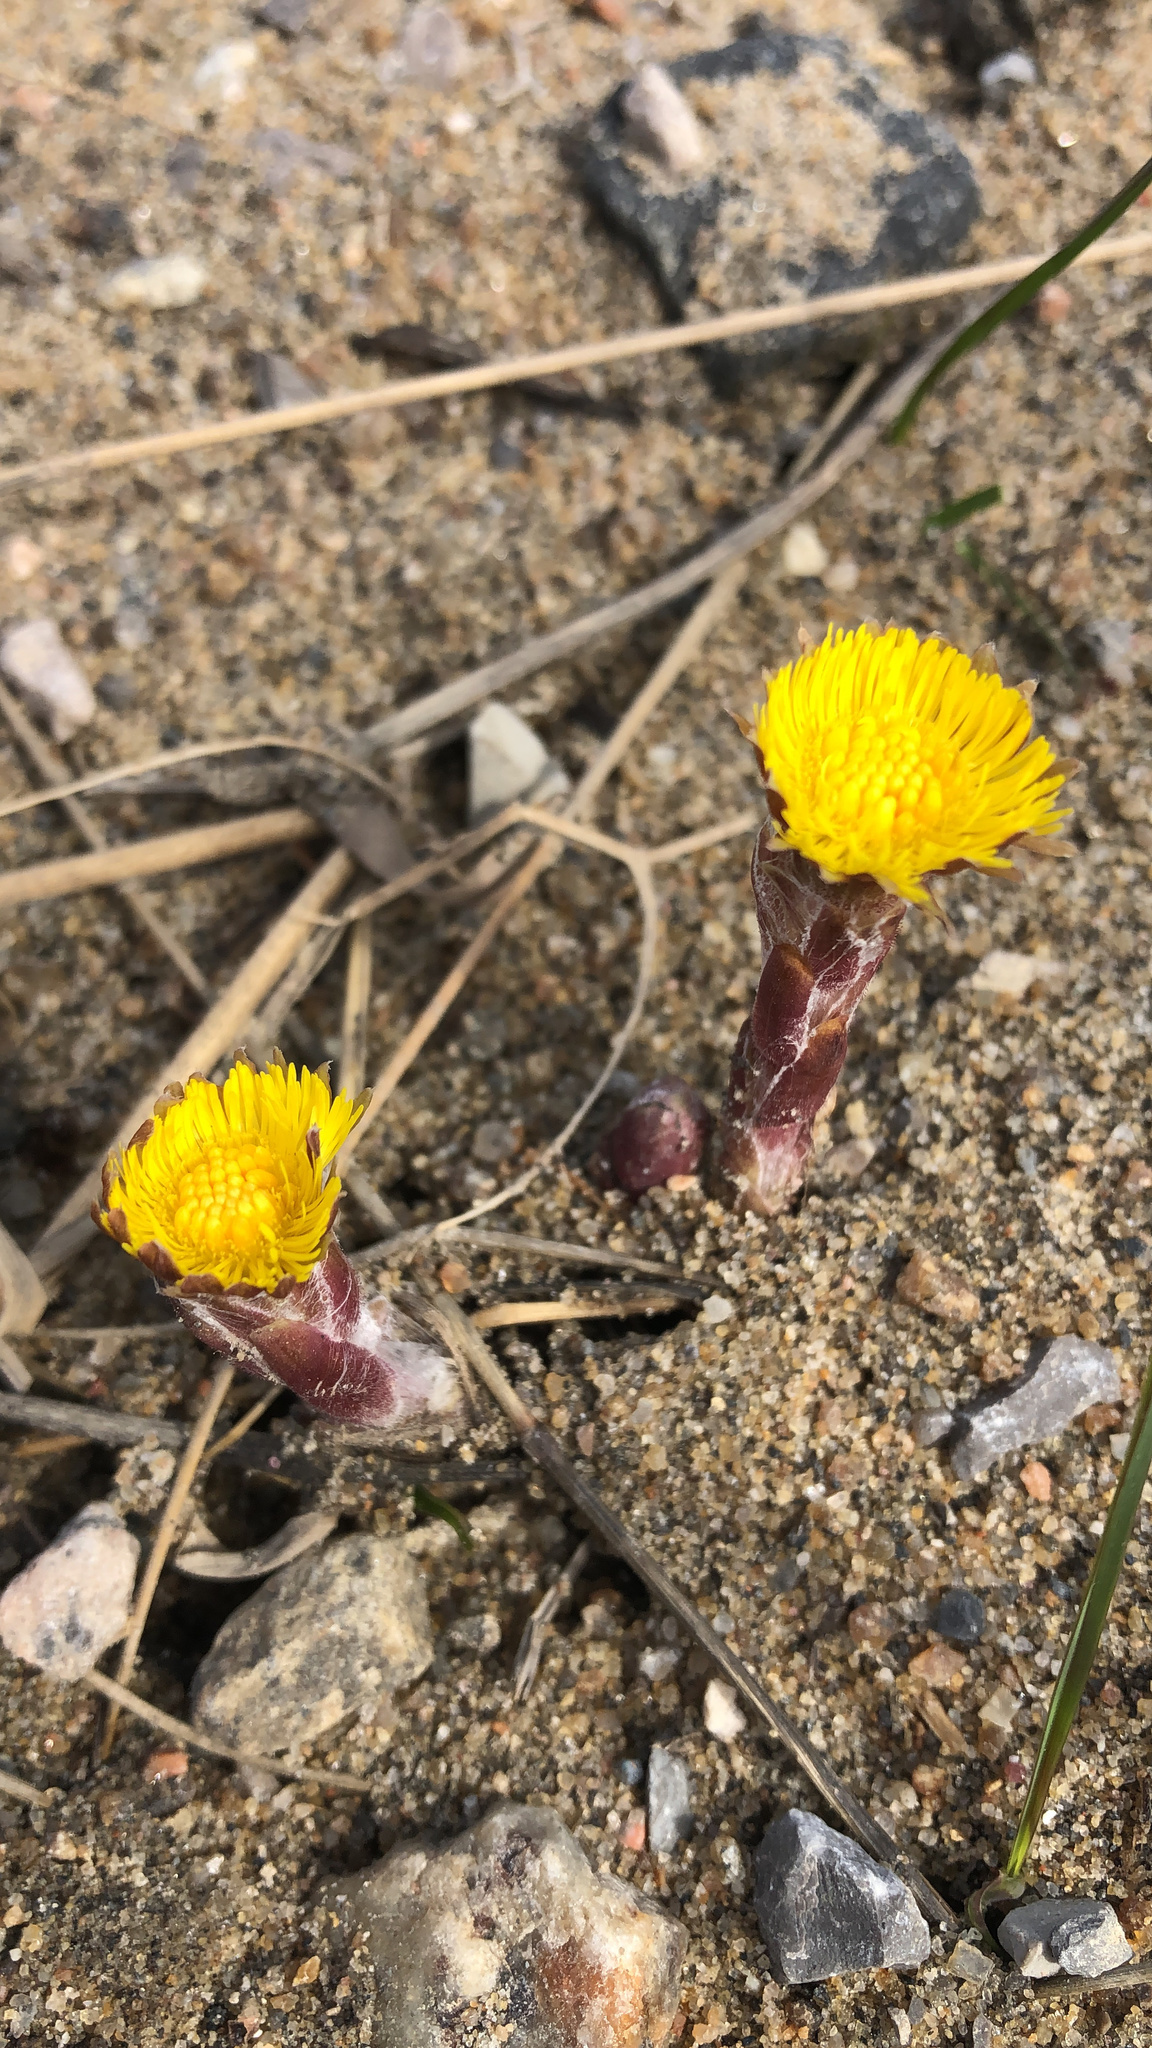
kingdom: Plantae
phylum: Tracheophyta
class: Magnoliopsida
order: Asterales
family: Asteraceae
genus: Tussilago
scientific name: Tussilago farfara
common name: Coltsfoot
